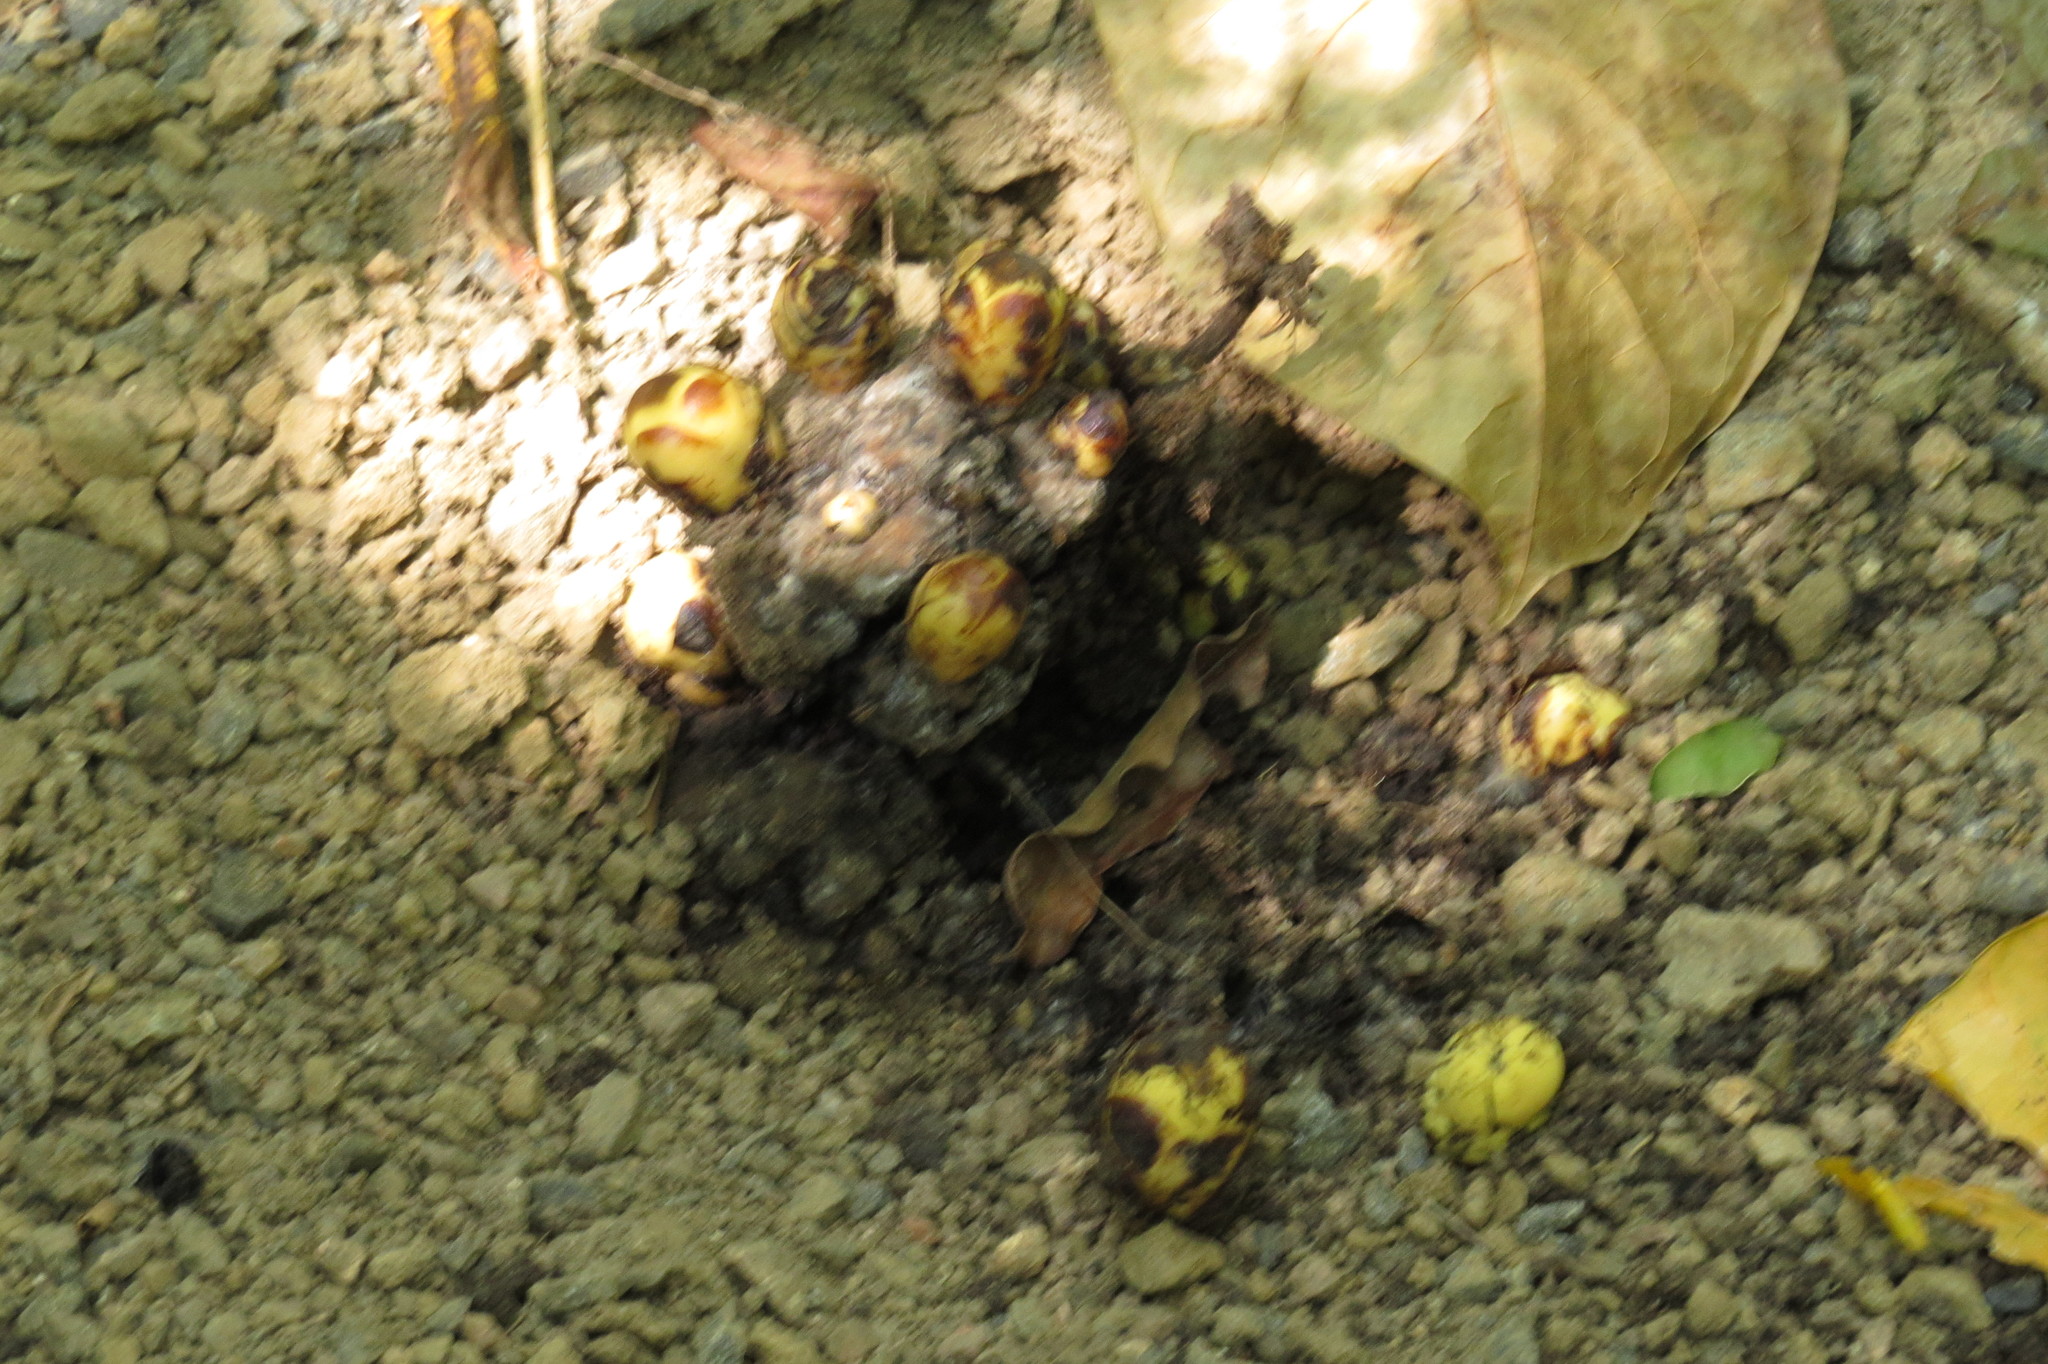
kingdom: Plantae
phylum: Tracheophyta
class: Magnoliopsida
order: Santalales
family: Balanophoraceae
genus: Balanophora
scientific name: Balanophora fungosa
